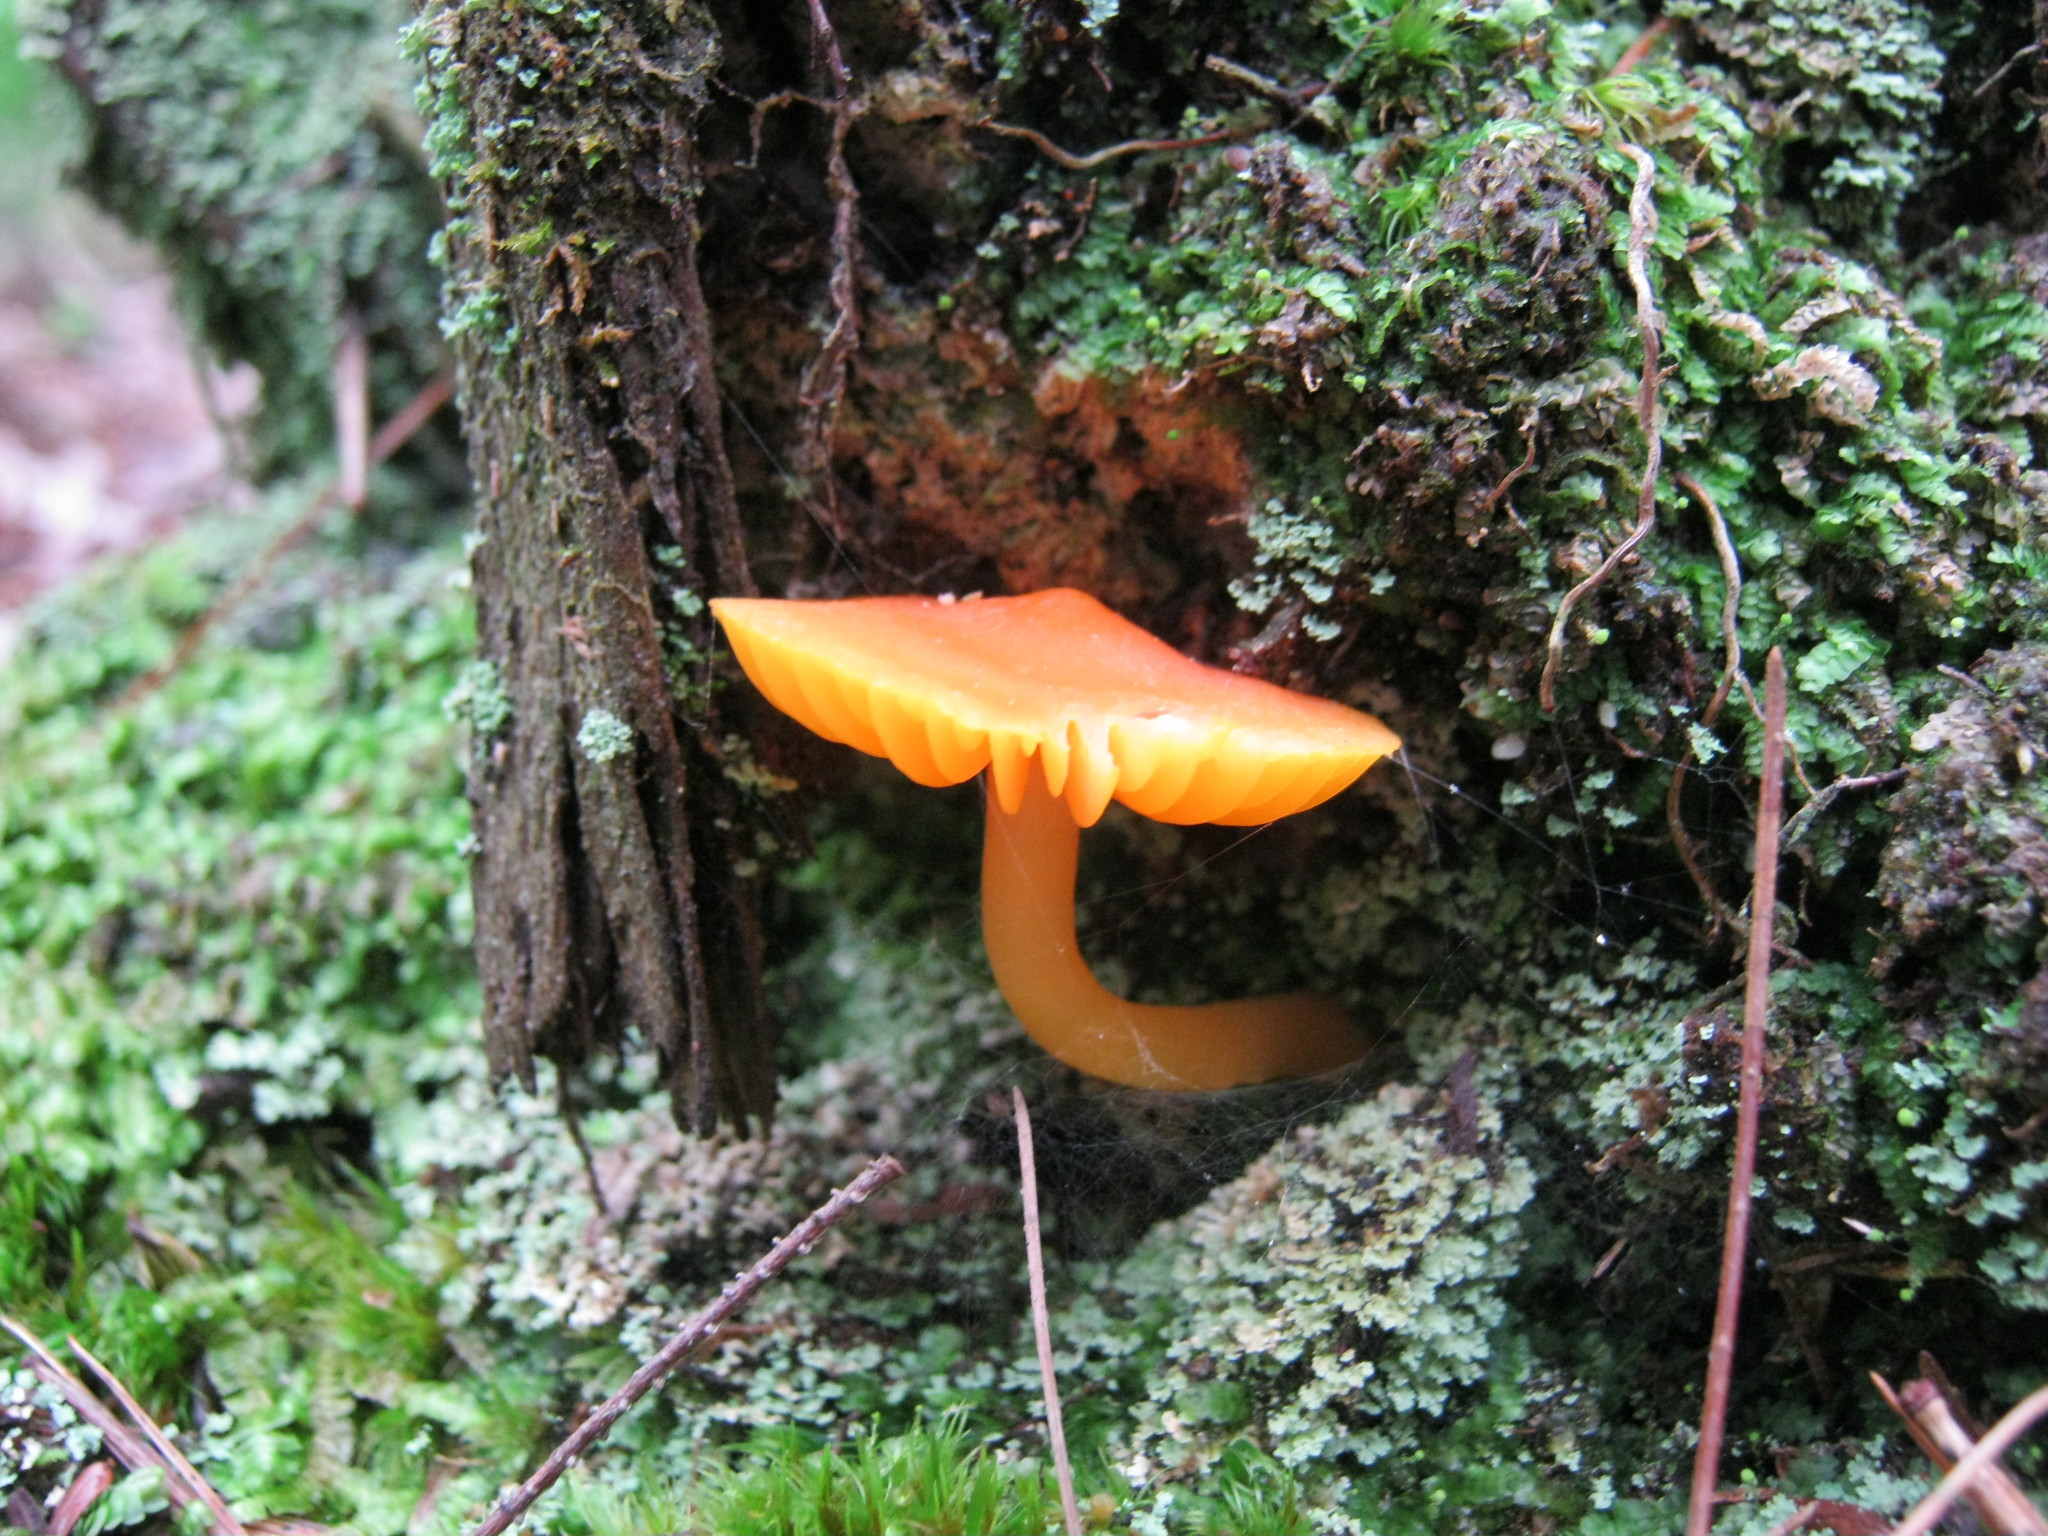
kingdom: Fungi
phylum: Basidiomycota
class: Agaricomycetes
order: Agaricales
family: Hygrophoraceae
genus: Humidicutis
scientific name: Humidicutis marginata
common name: Orange gilled waxcap
